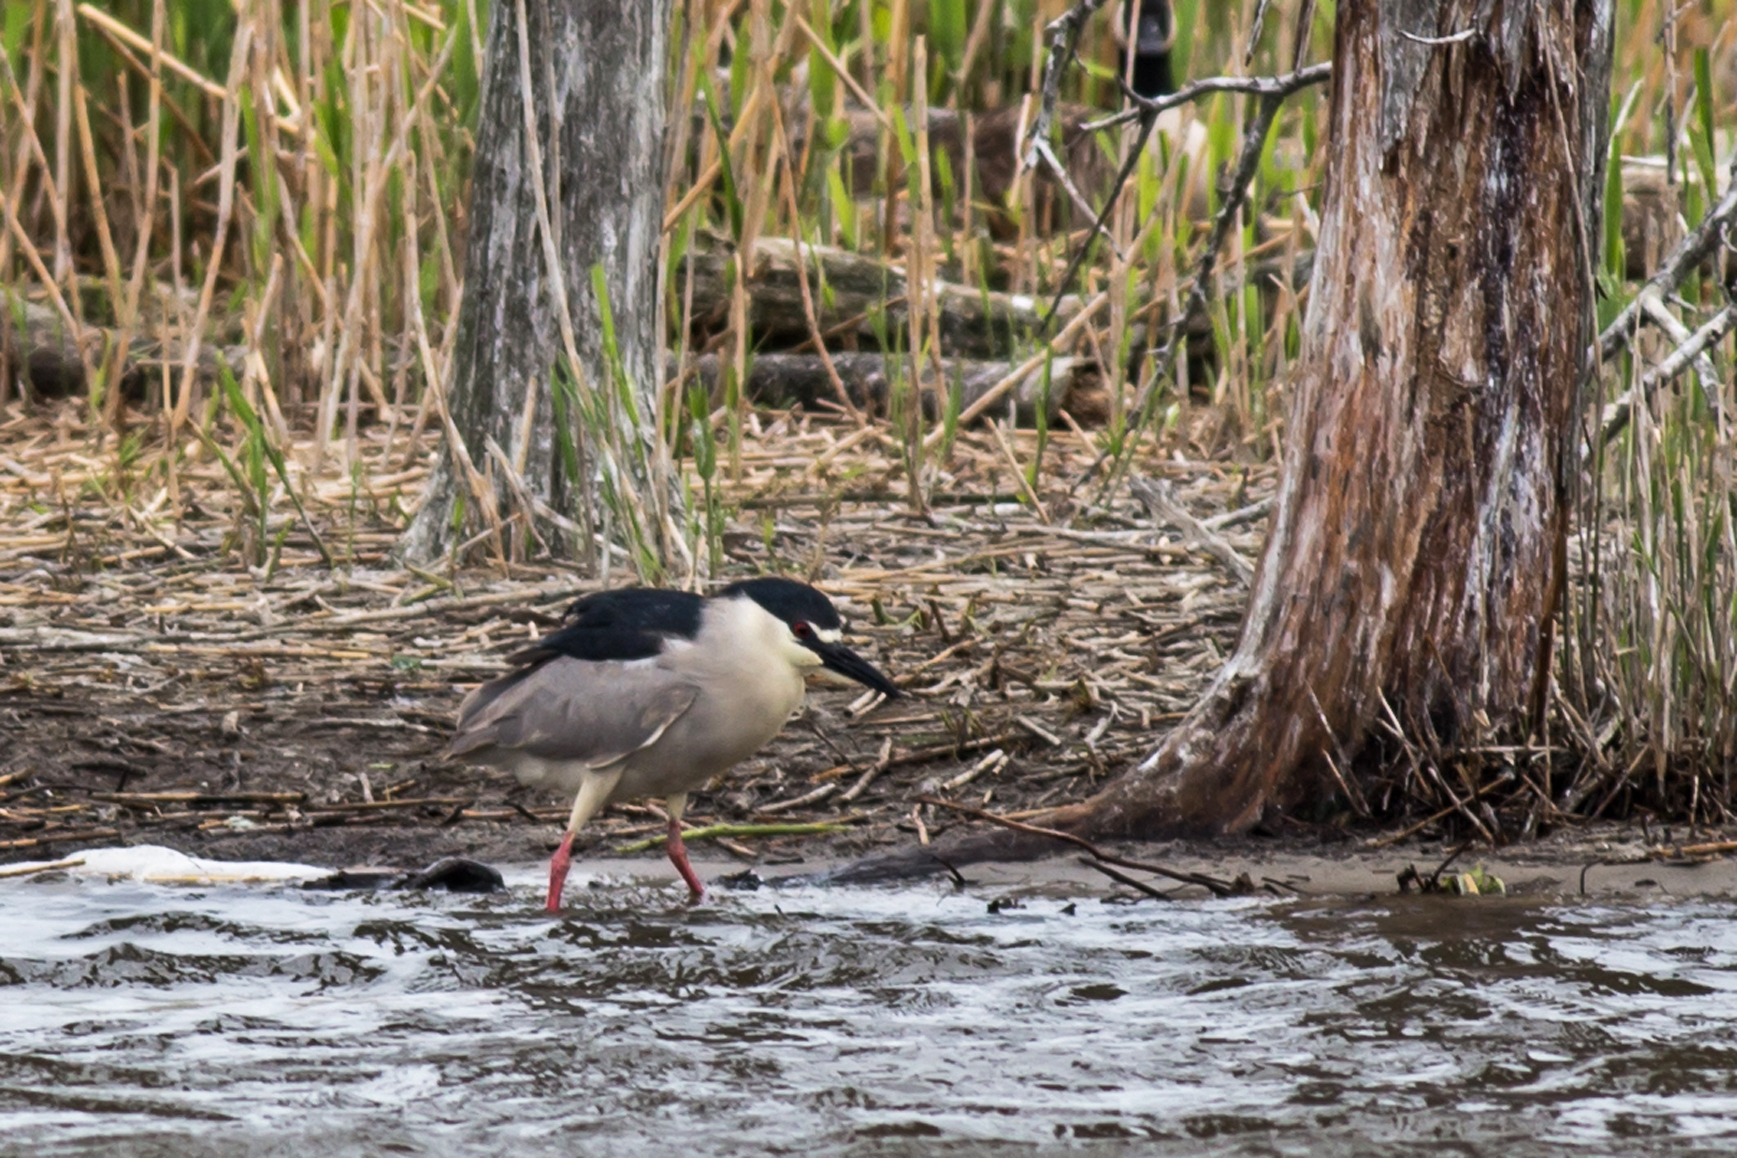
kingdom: Animalia
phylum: Chordata
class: Aves
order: Pelecaniformes
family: Ardeidae
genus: Nycticorax
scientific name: Nycticorax nycticorax
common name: Black-crowned night heron
